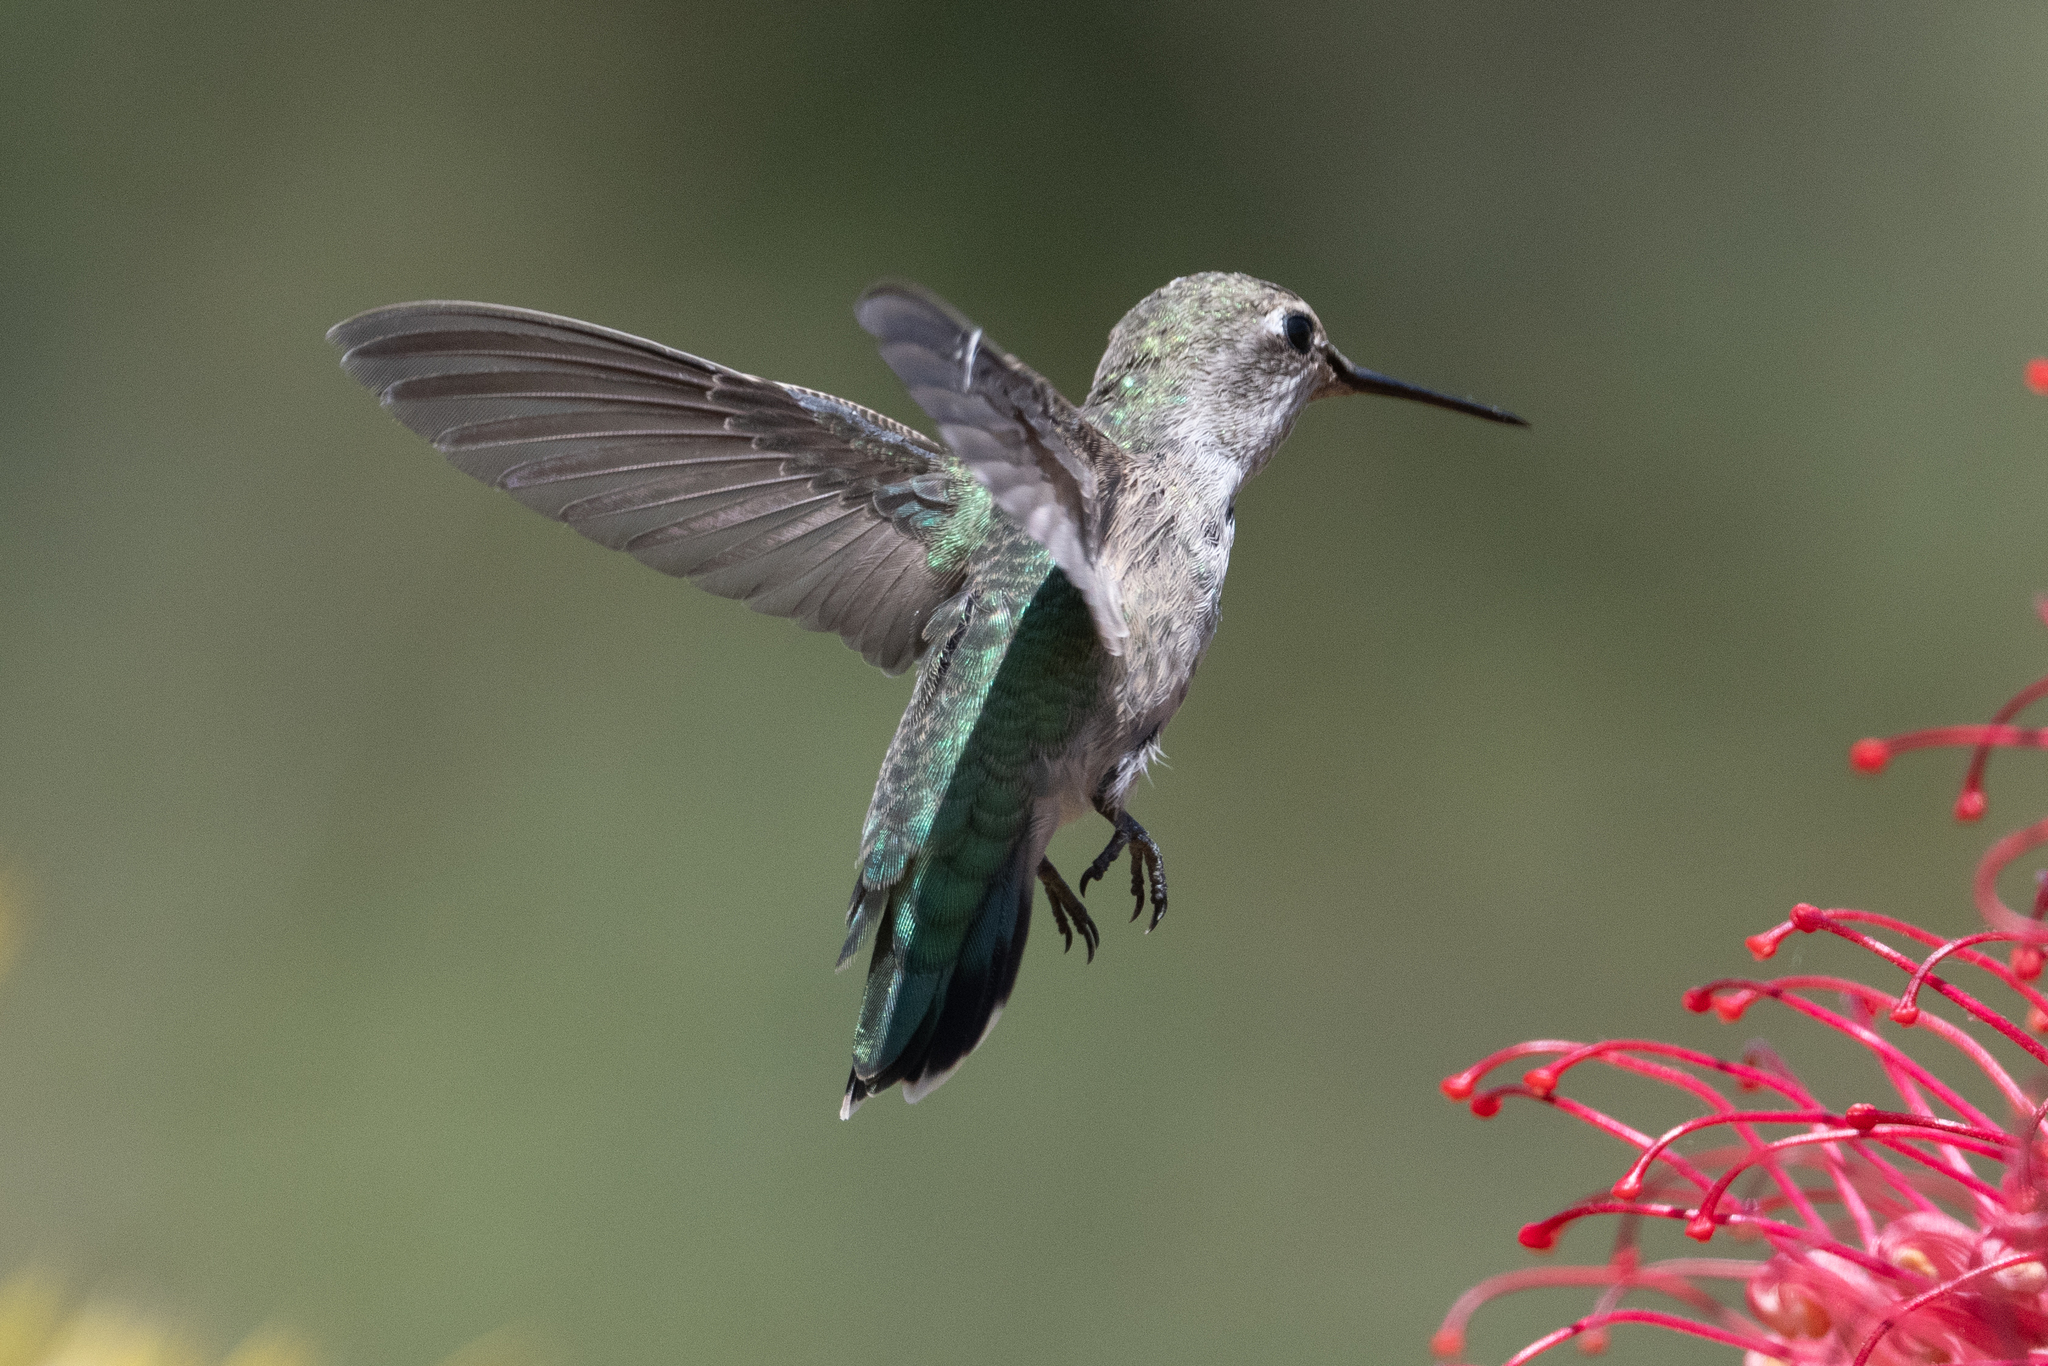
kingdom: Animalia
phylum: Chordata
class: Aves
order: Apodiformes
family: Trochilidae
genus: Calypte
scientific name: Calypte anna
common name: Anna's hummingbird
